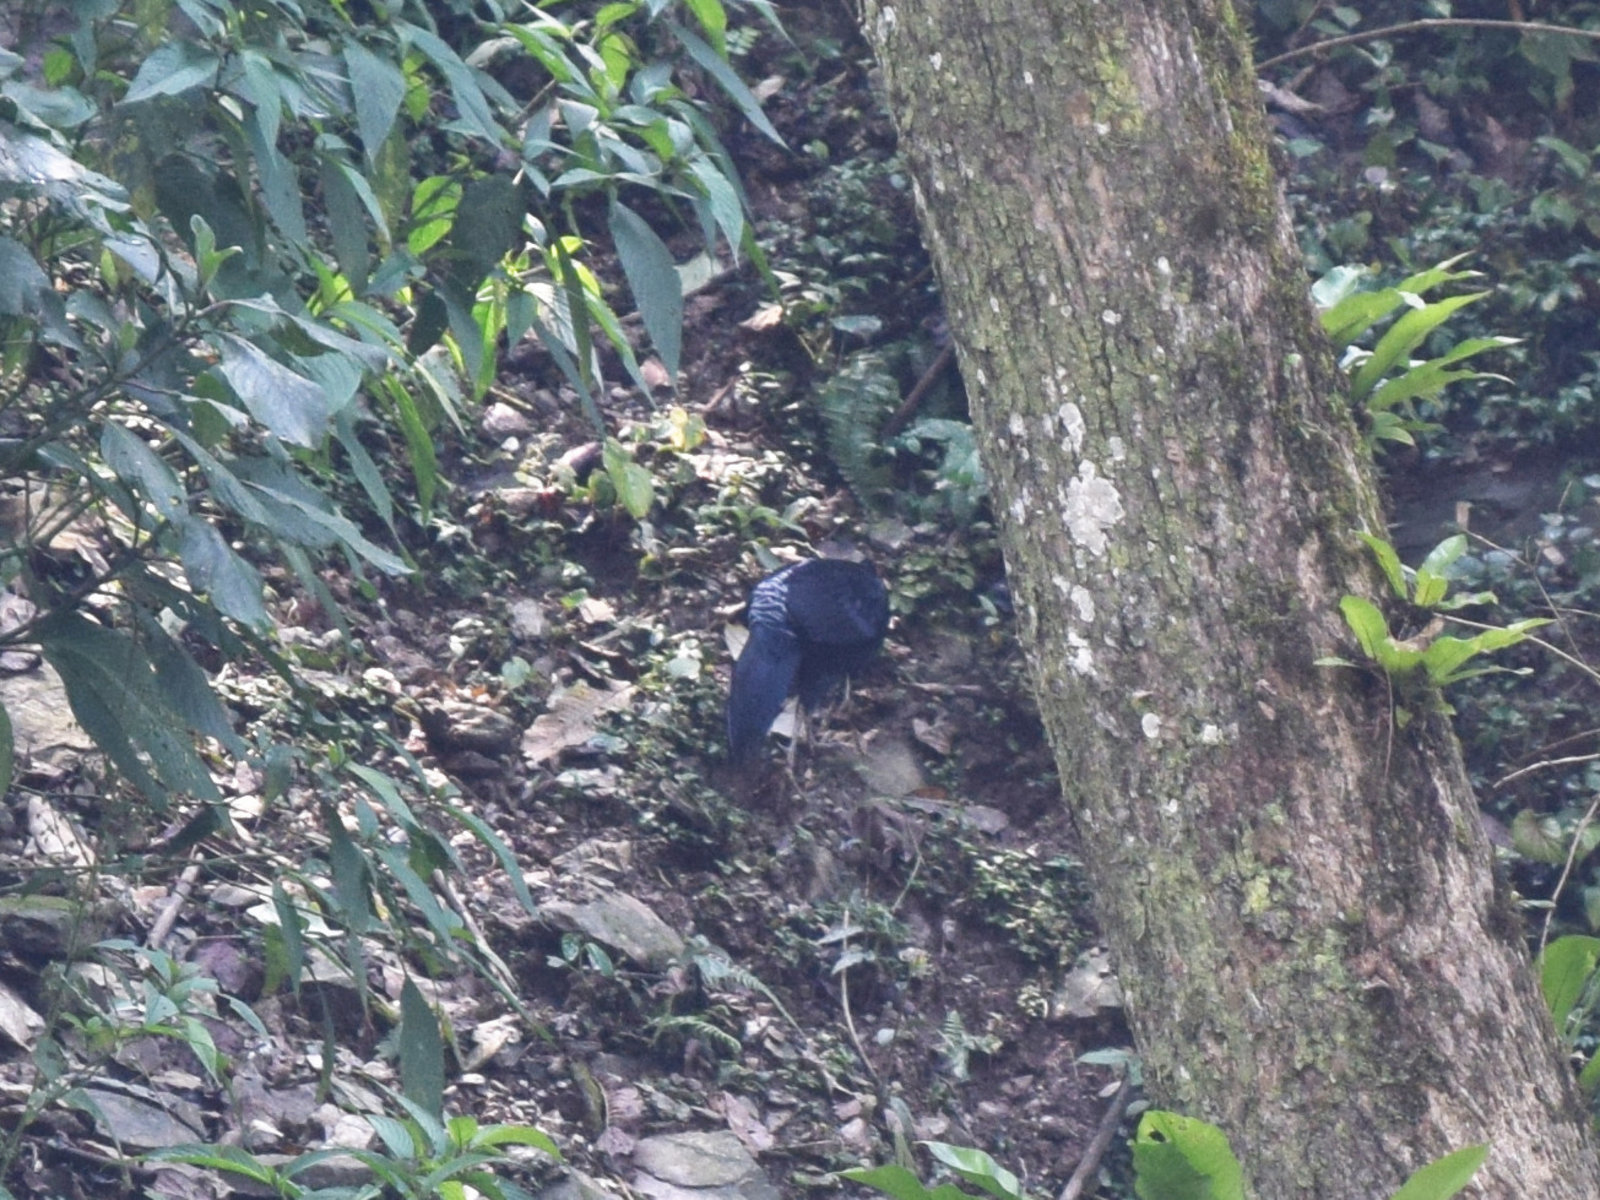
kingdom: Animalia
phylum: Chordata
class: Aves
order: Galliformes
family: Phasianidae
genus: Lophura
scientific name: Lophura leucomelanos
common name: Kalij pheasant
